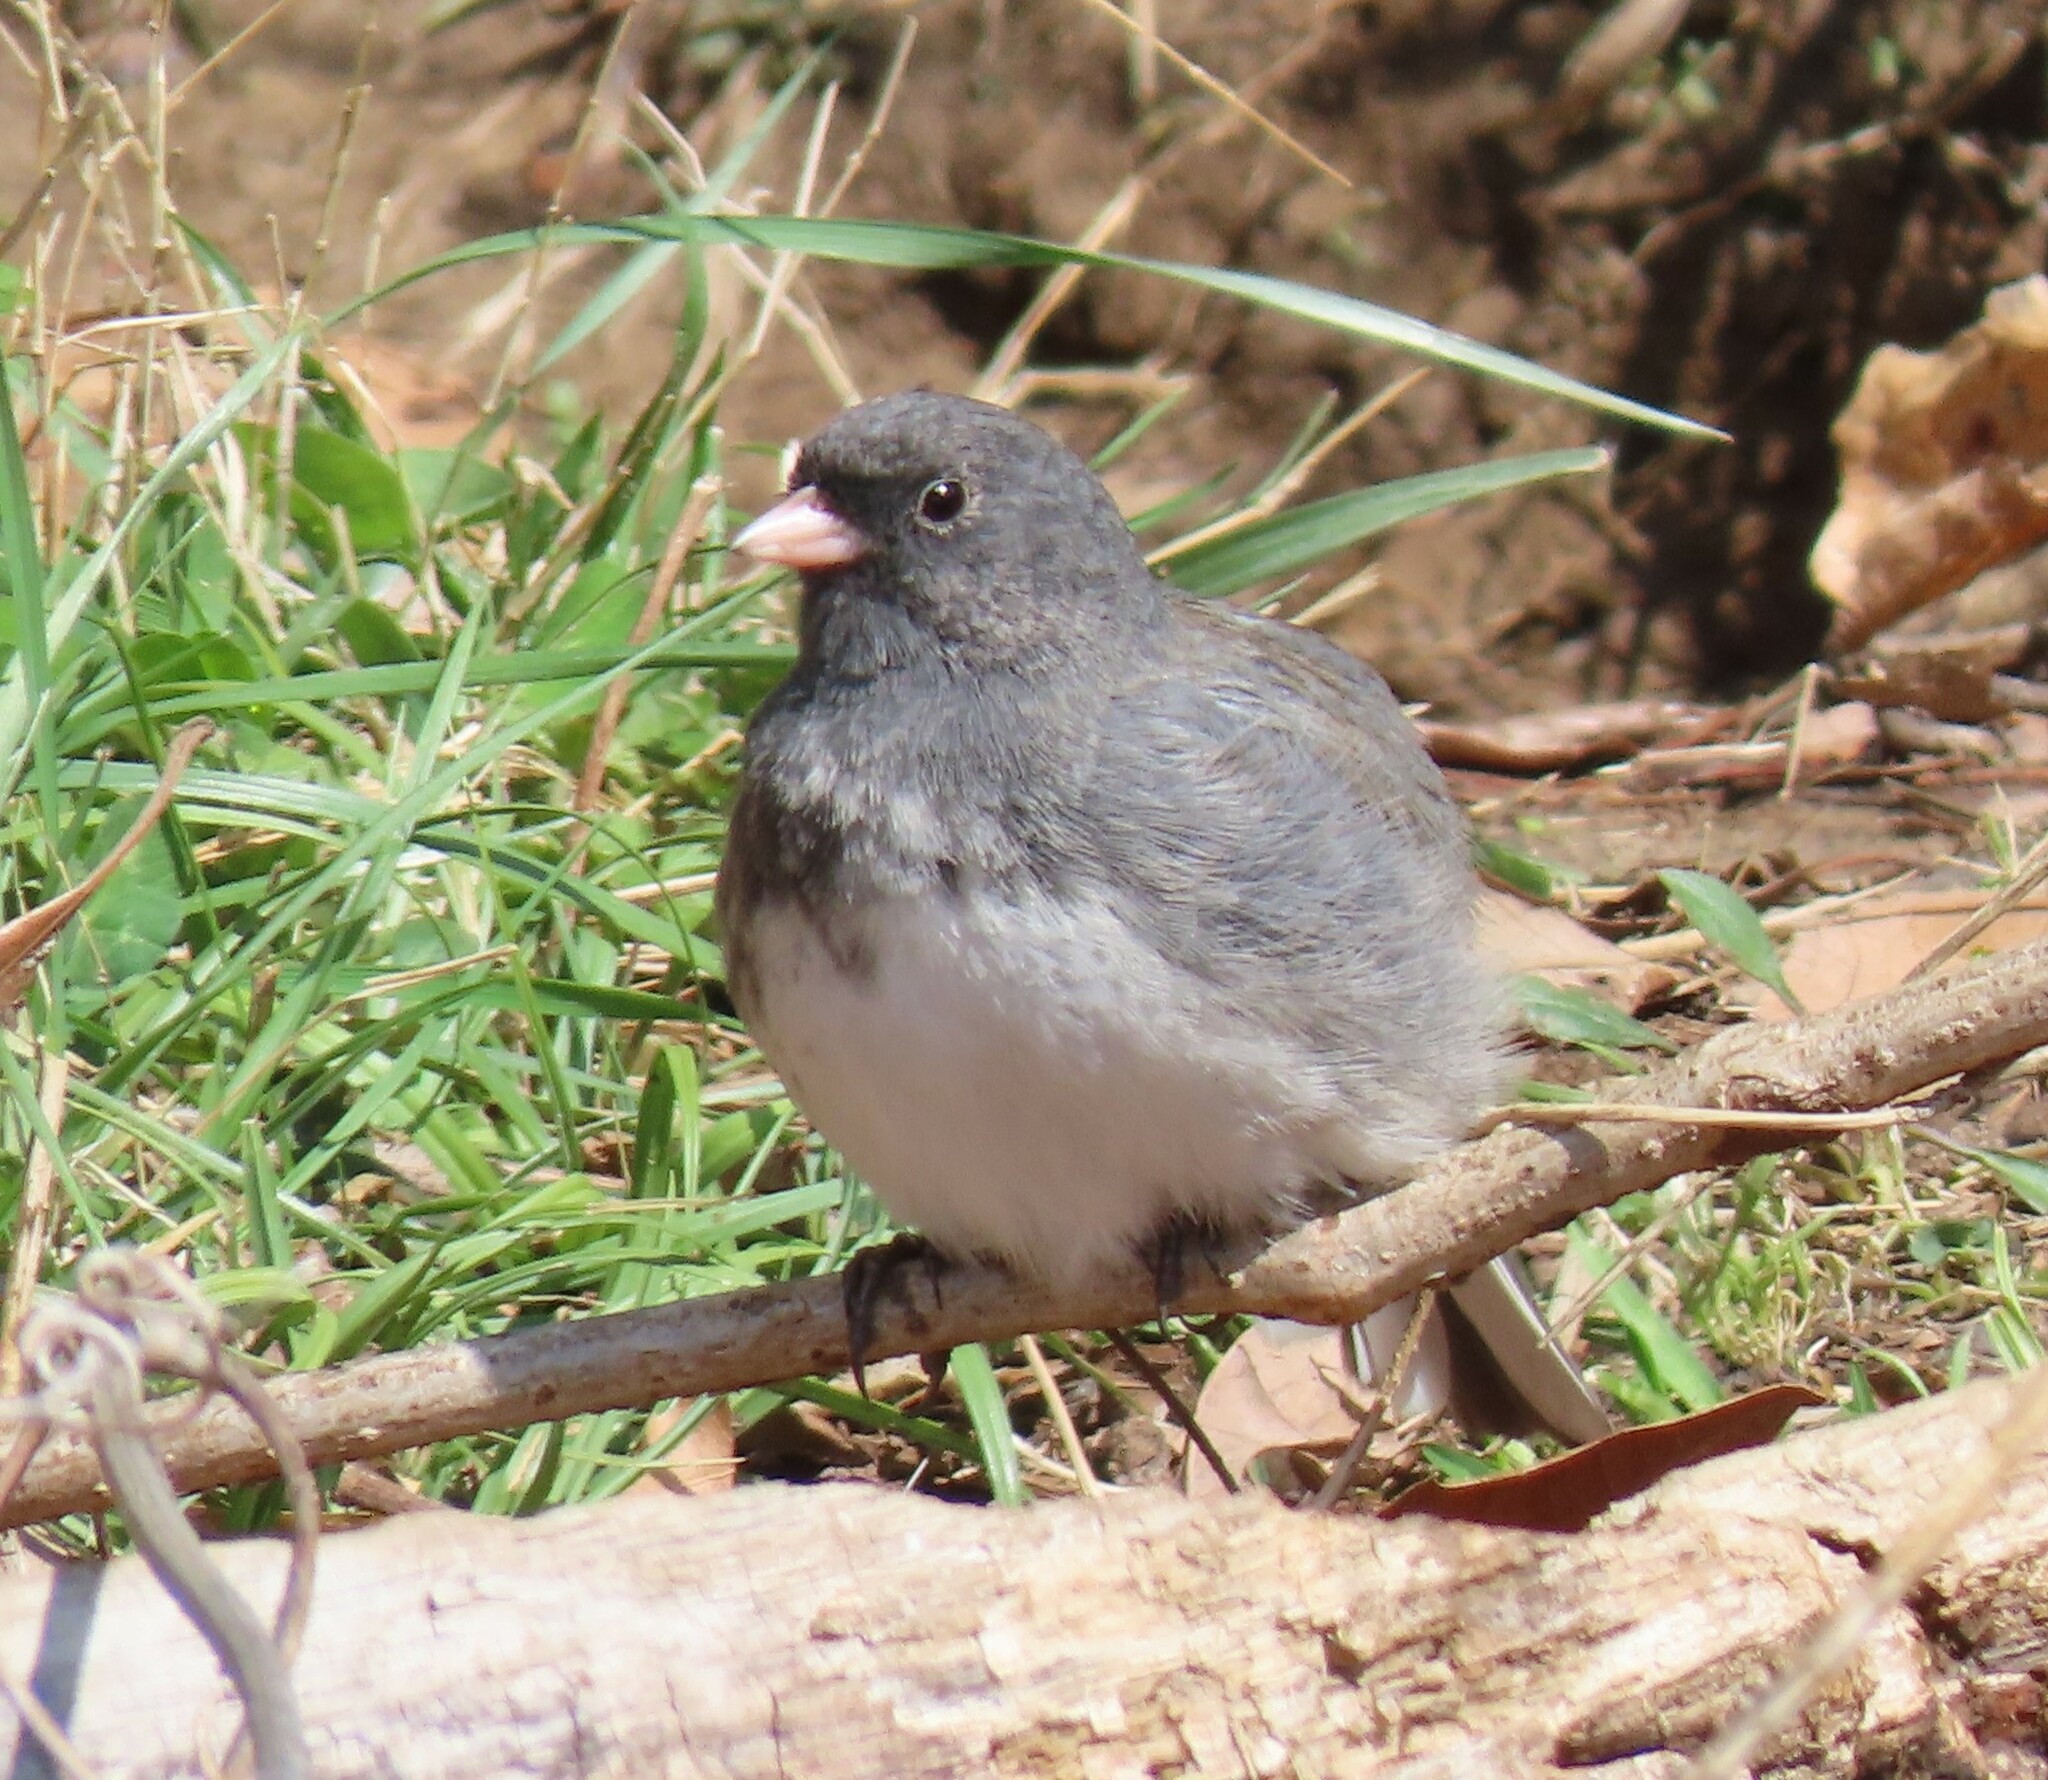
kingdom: Animalia
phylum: Chordata
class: Aves
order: Passeriformes
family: Passerellidae
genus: Junco
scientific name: Junco hyemalis
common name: Dark-eyed junco
